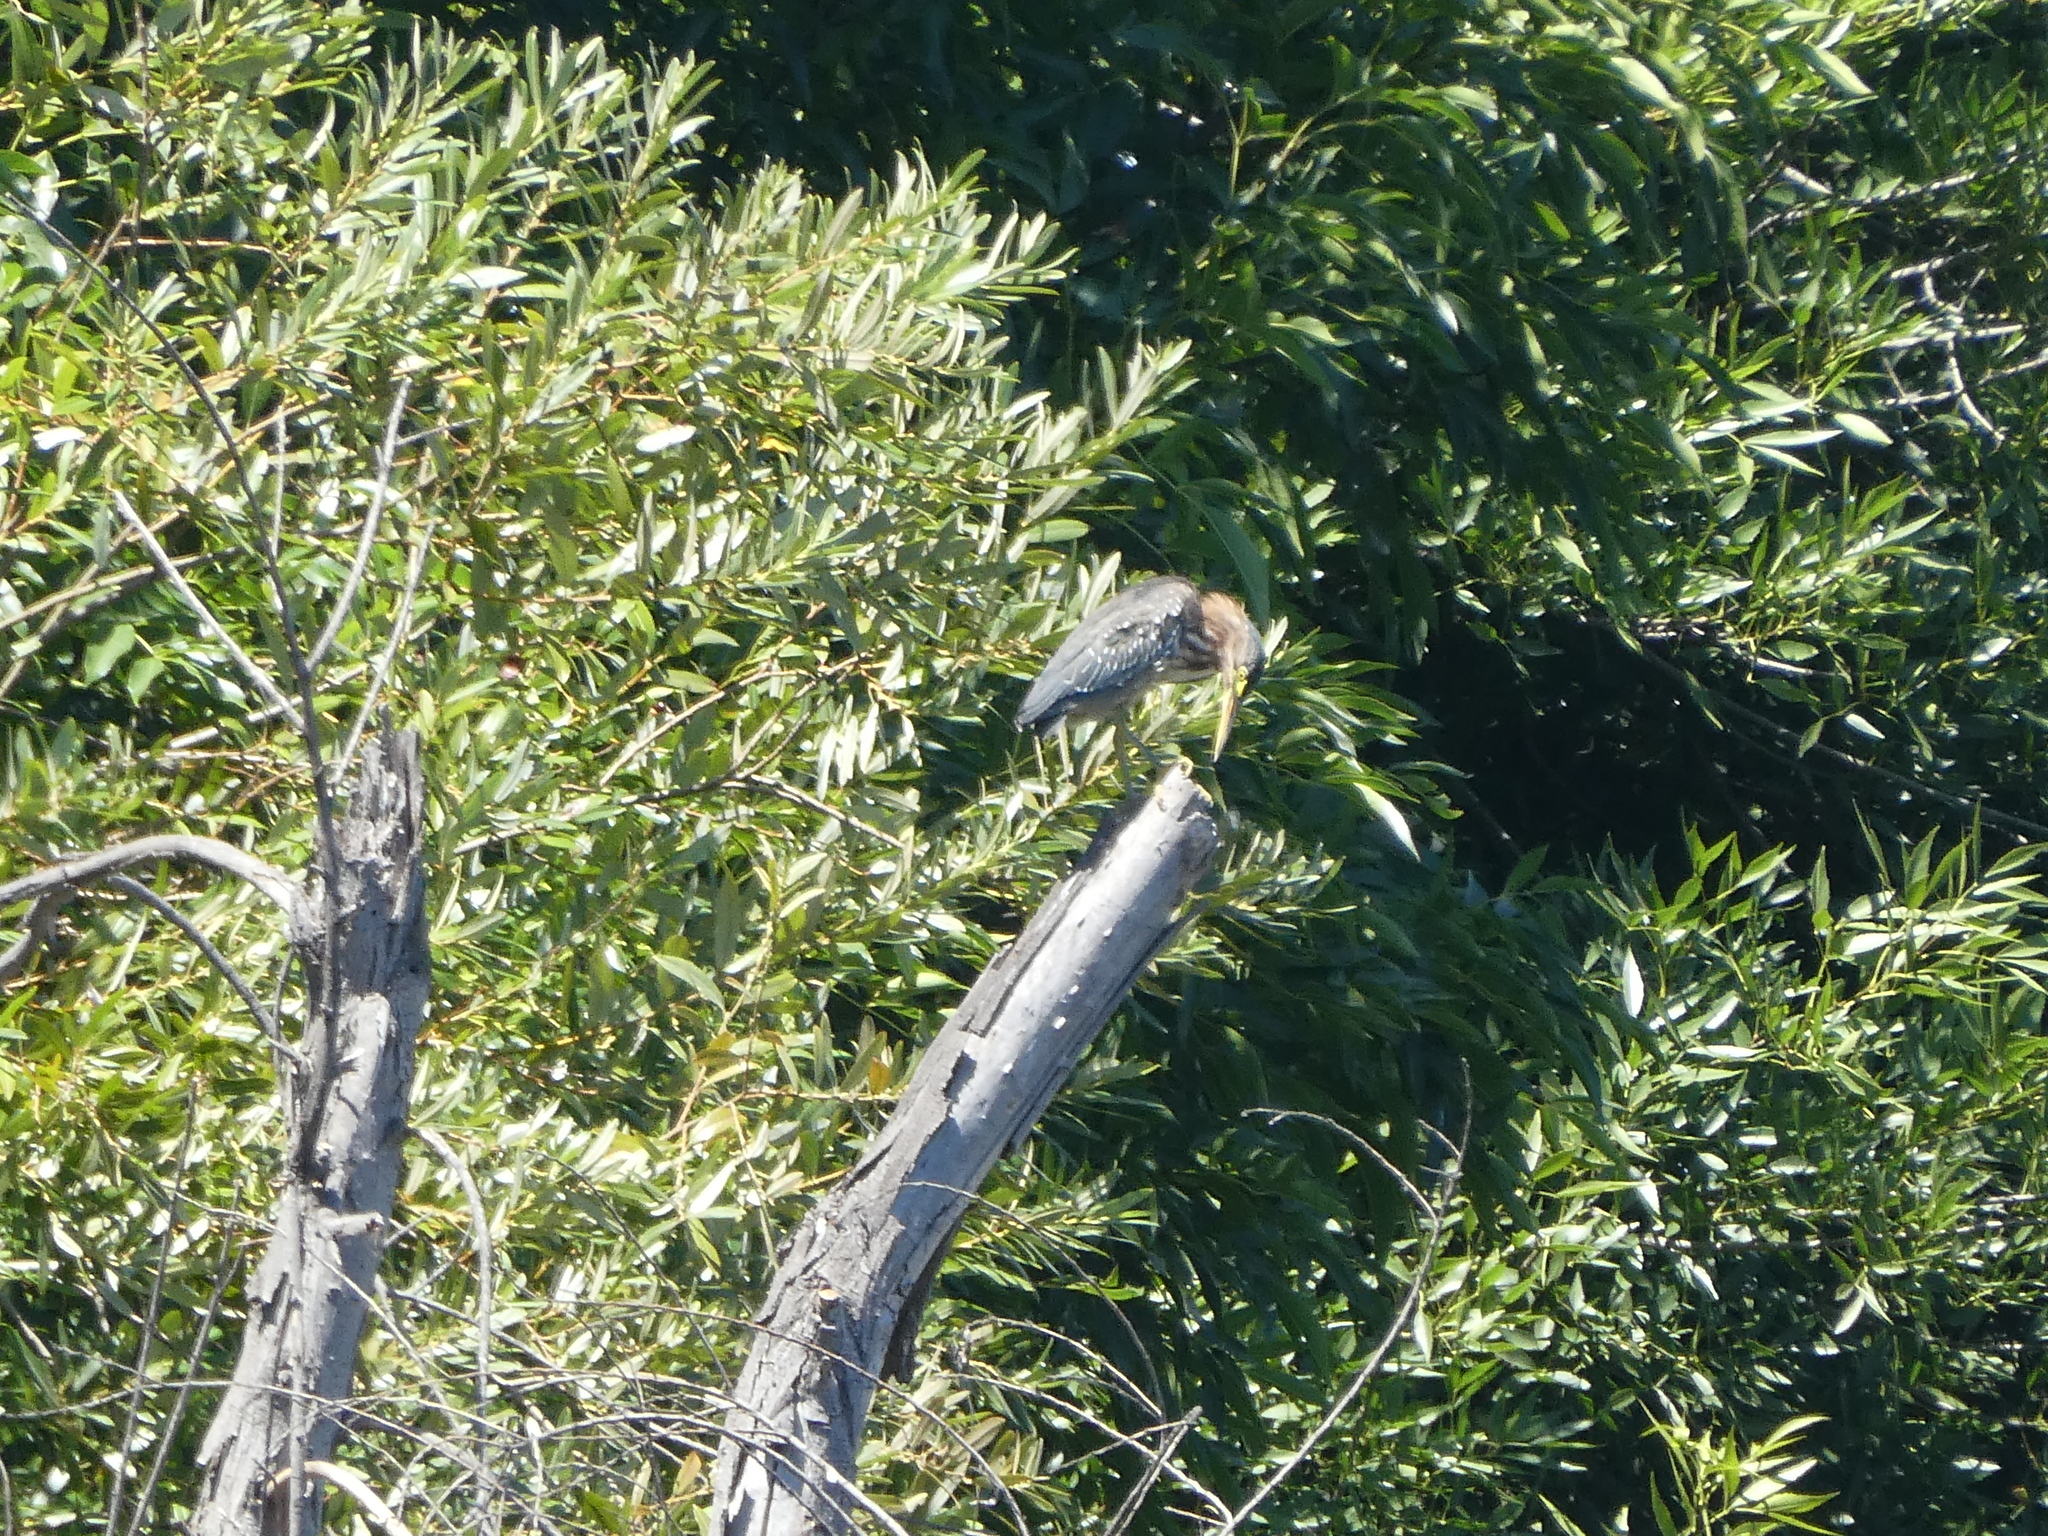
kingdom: Animalia
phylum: Chordata
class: Aves
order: Pelecaniformes
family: Ardeidae
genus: Butorides
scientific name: Butorides virescens
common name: Green heron
